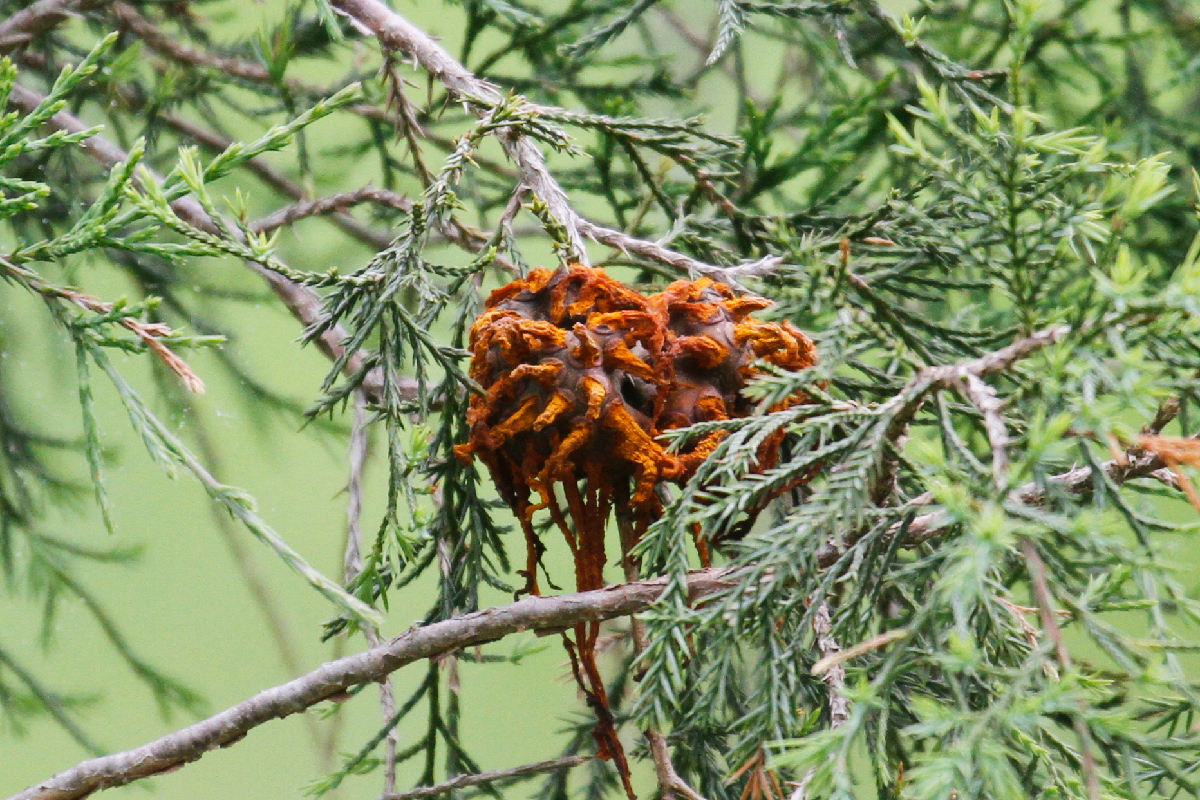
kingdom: Fungi
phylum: Basidiomycota
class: Pucciniomycetes
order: Pucciniales
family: Gymnosporangiaceae
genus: Gymnosporangium
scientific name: Gymnosporangium juniperi-virginianae
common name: Juniper-apple rust
